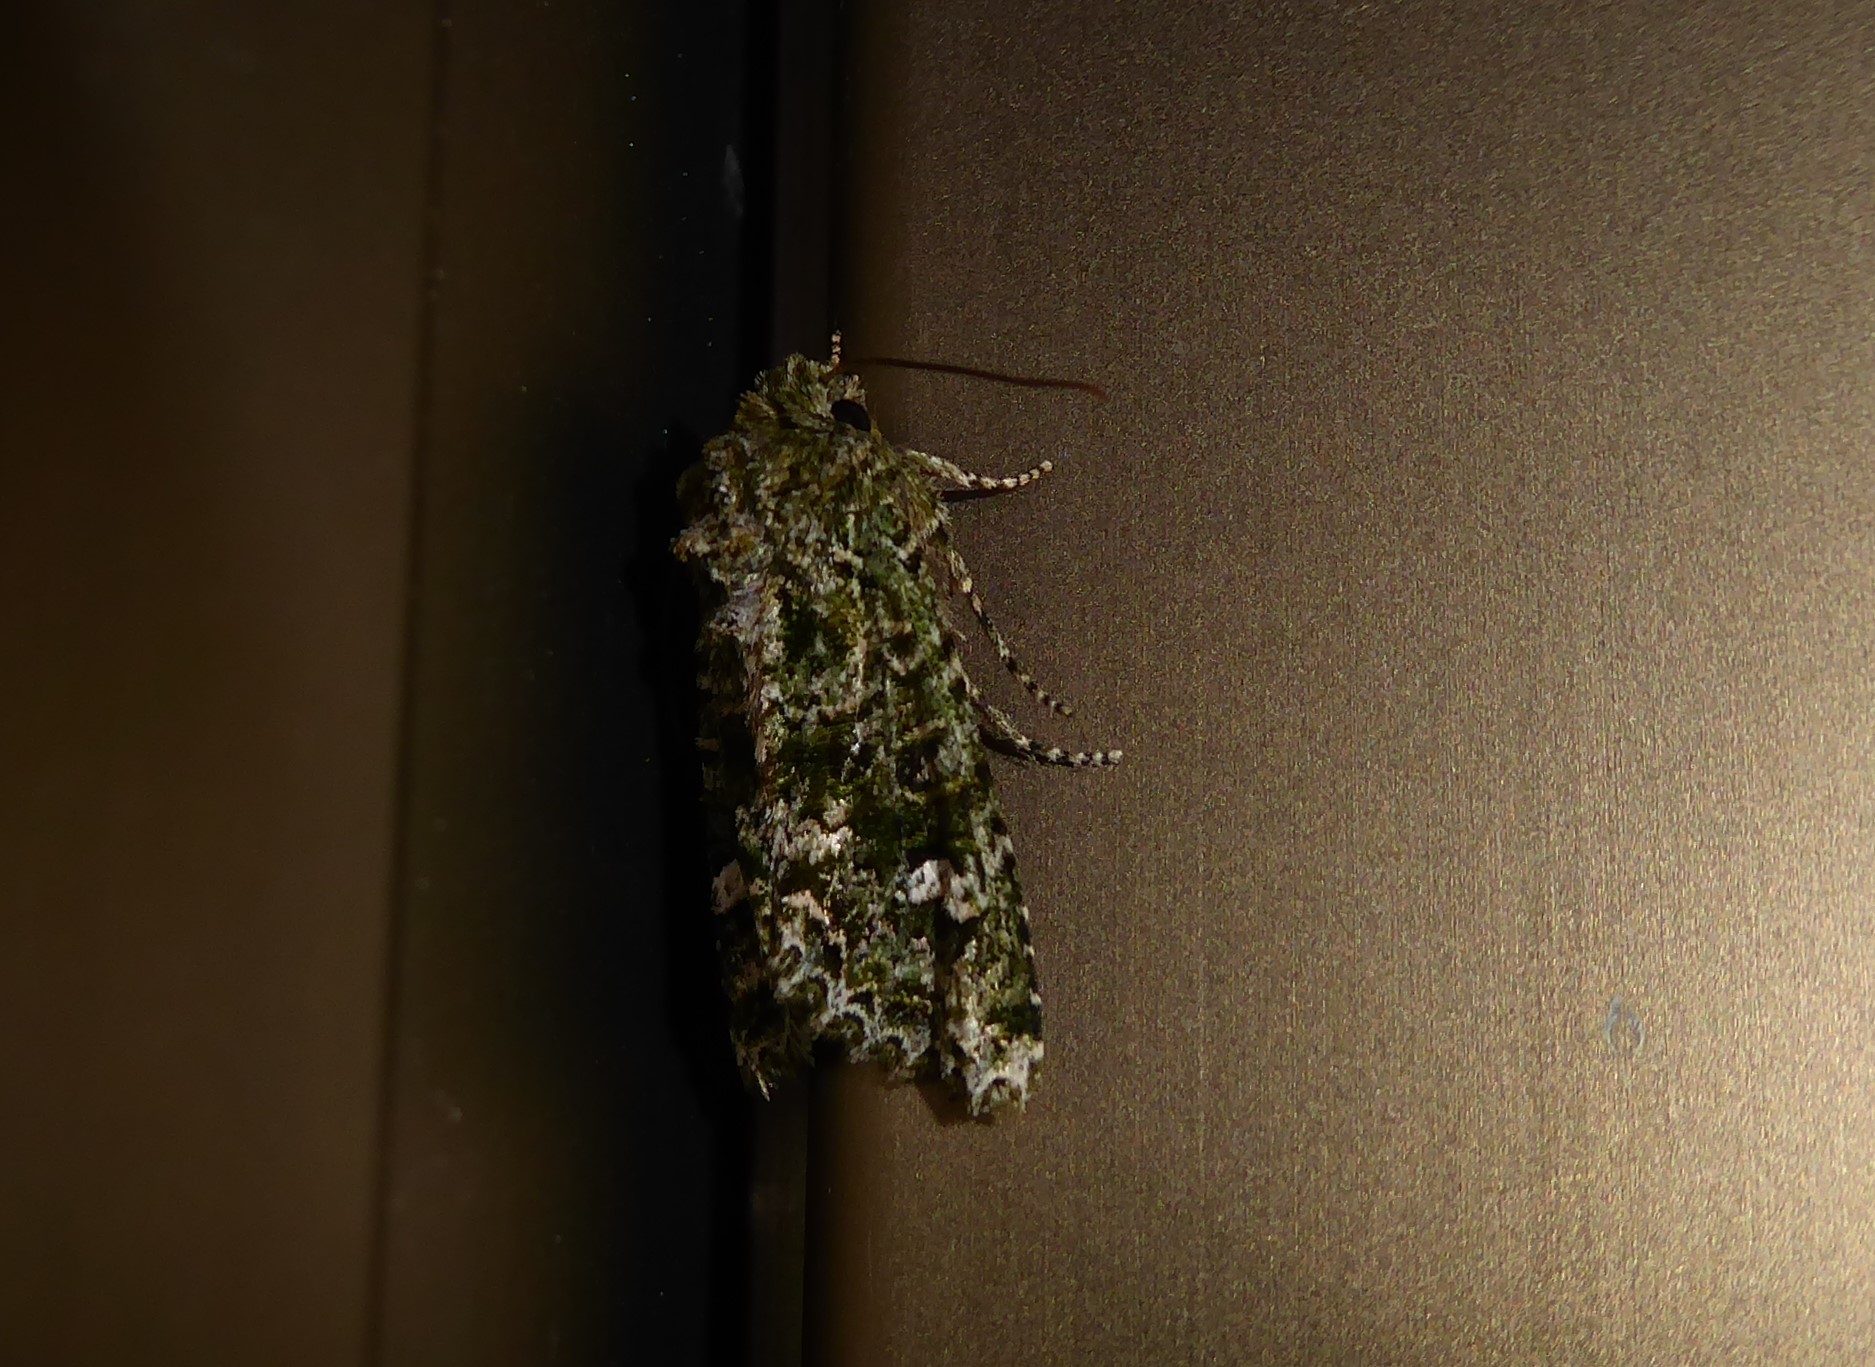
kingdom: Animalia
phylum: Arthropoda
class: Insecta
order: Lepidoptera
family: Noctuidae
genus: Ichneutica
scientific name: Ichneutica
